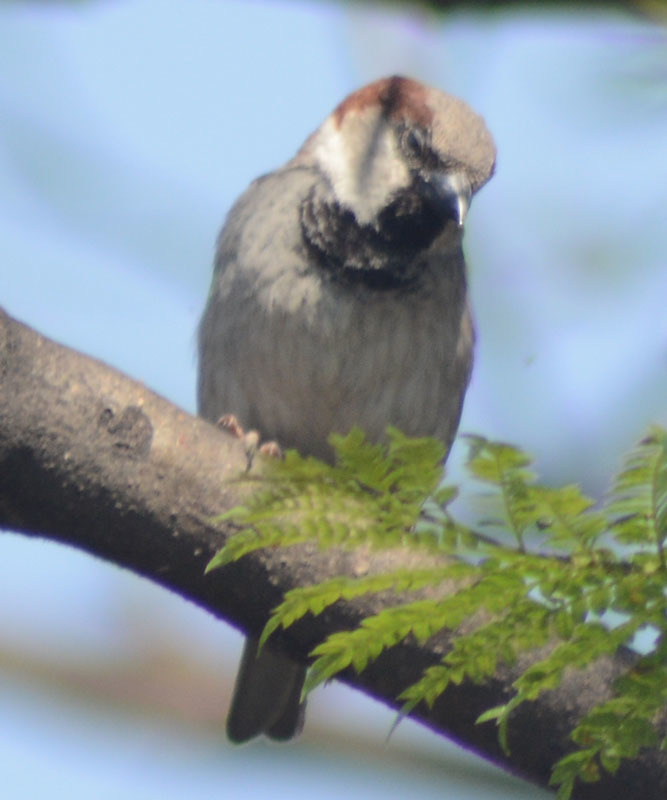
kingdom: Animalia
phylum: Chordata
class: Aves
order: Passeriformes
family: Passeridae
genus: Passer
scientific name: Passer domesticus
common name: House sparrow
